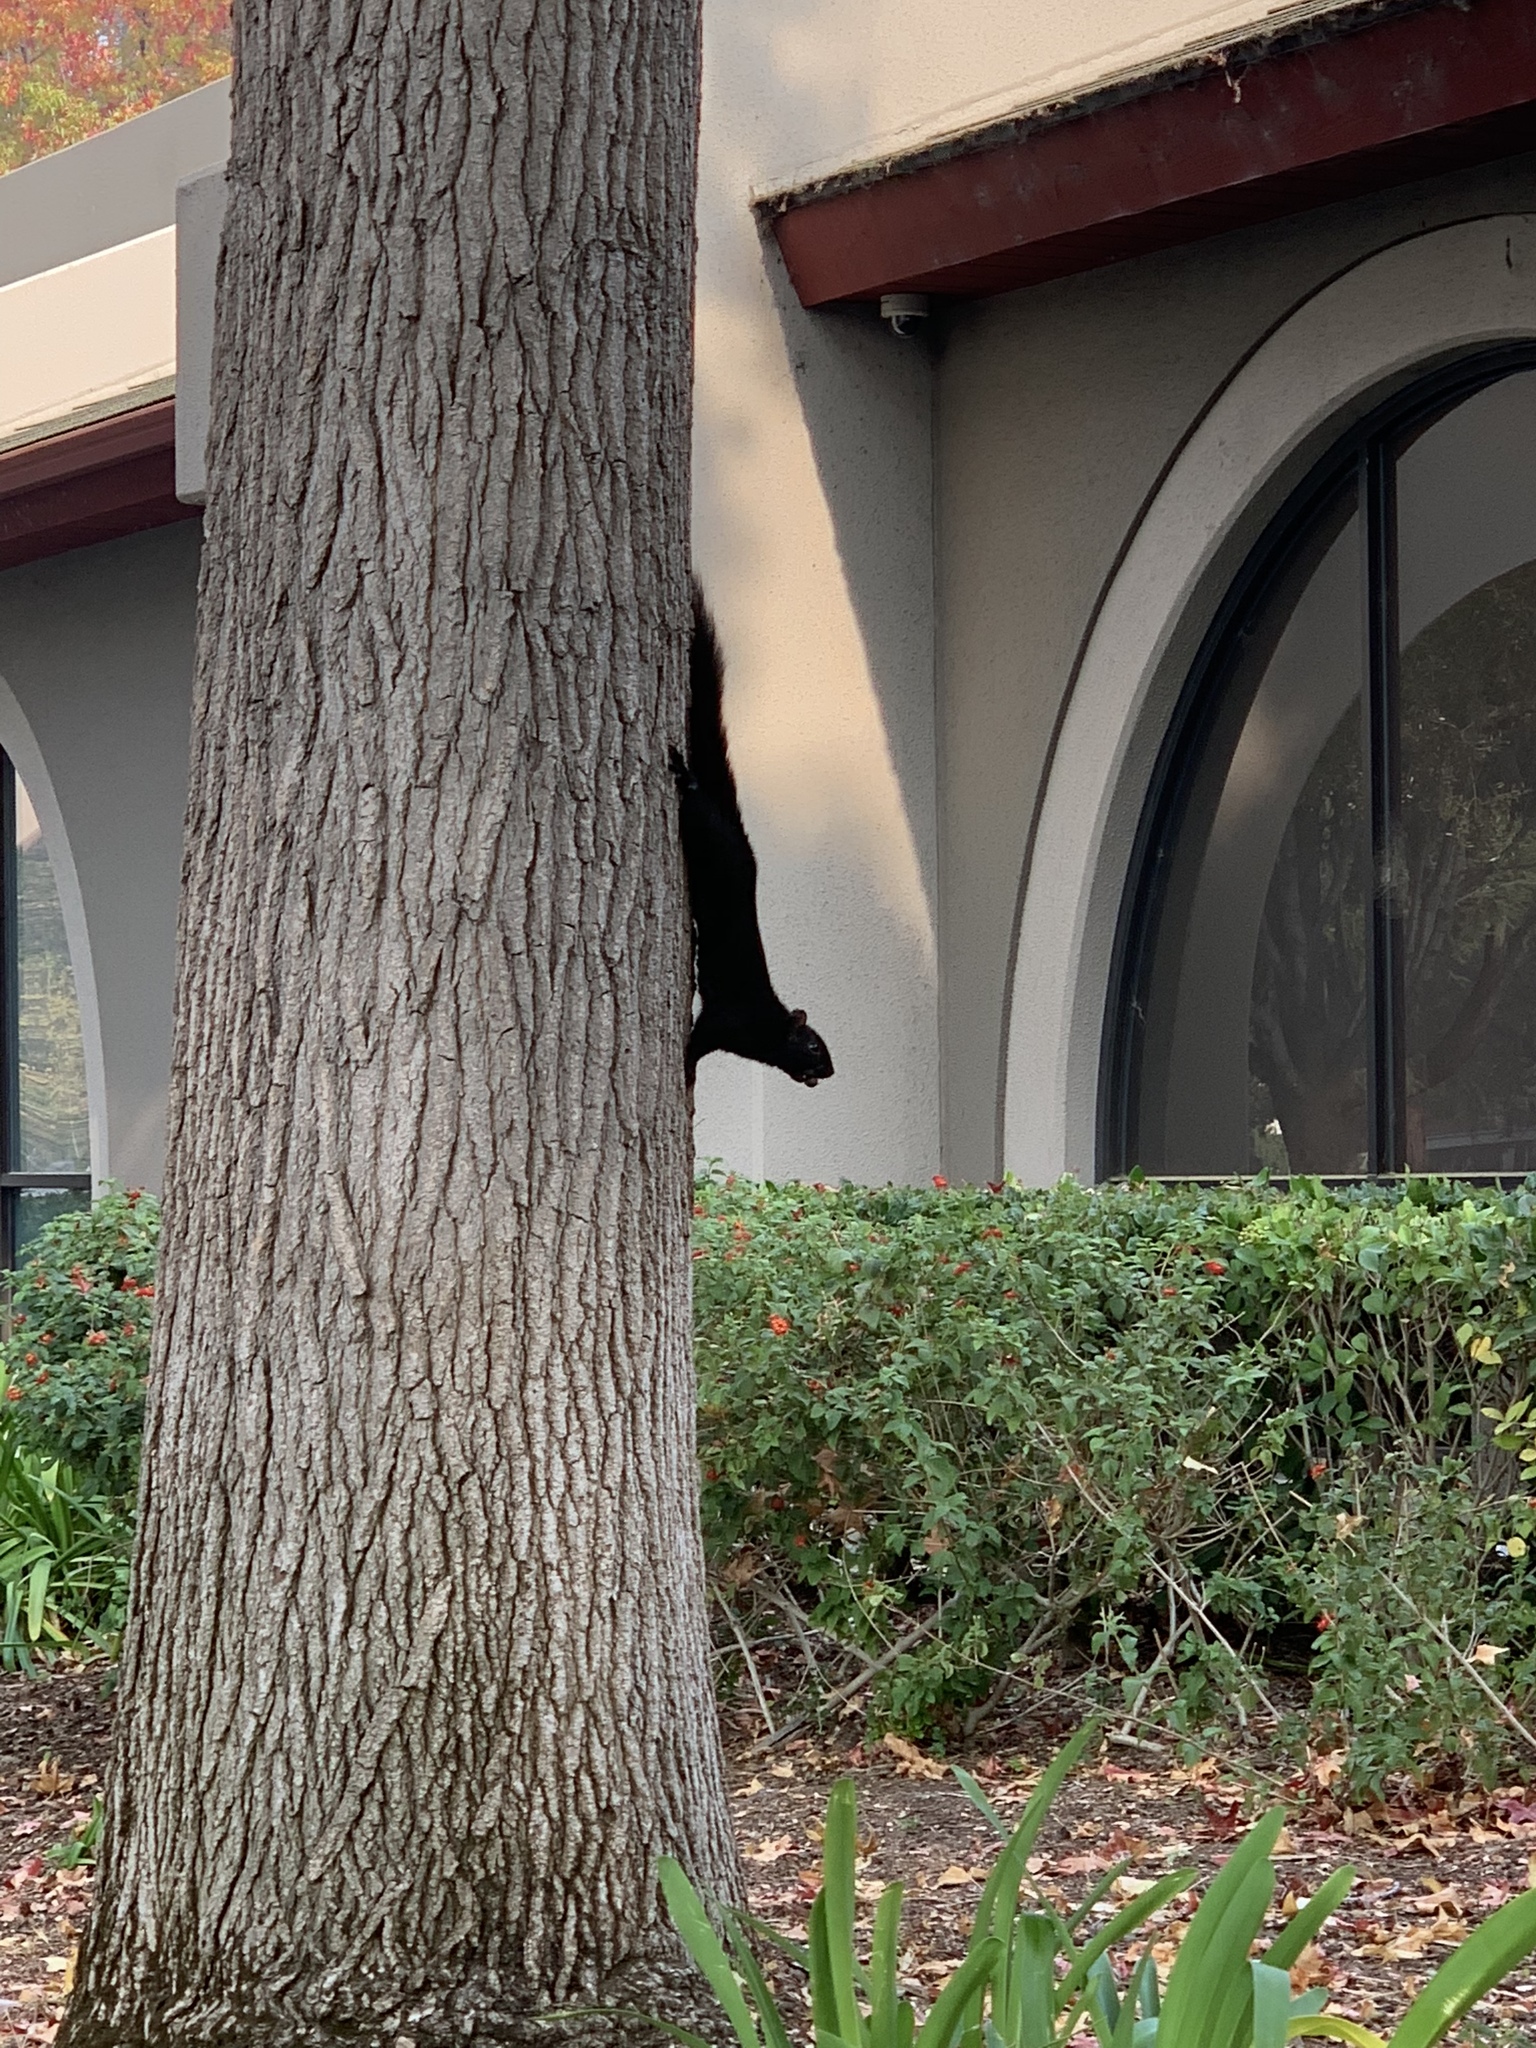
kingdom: Animalia
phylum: Chordata
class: Mammalia
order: Rodentia
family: Sciuridae
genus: Sciurus
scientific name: Sciurus carolinensis
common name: Eastern gray squirrel
